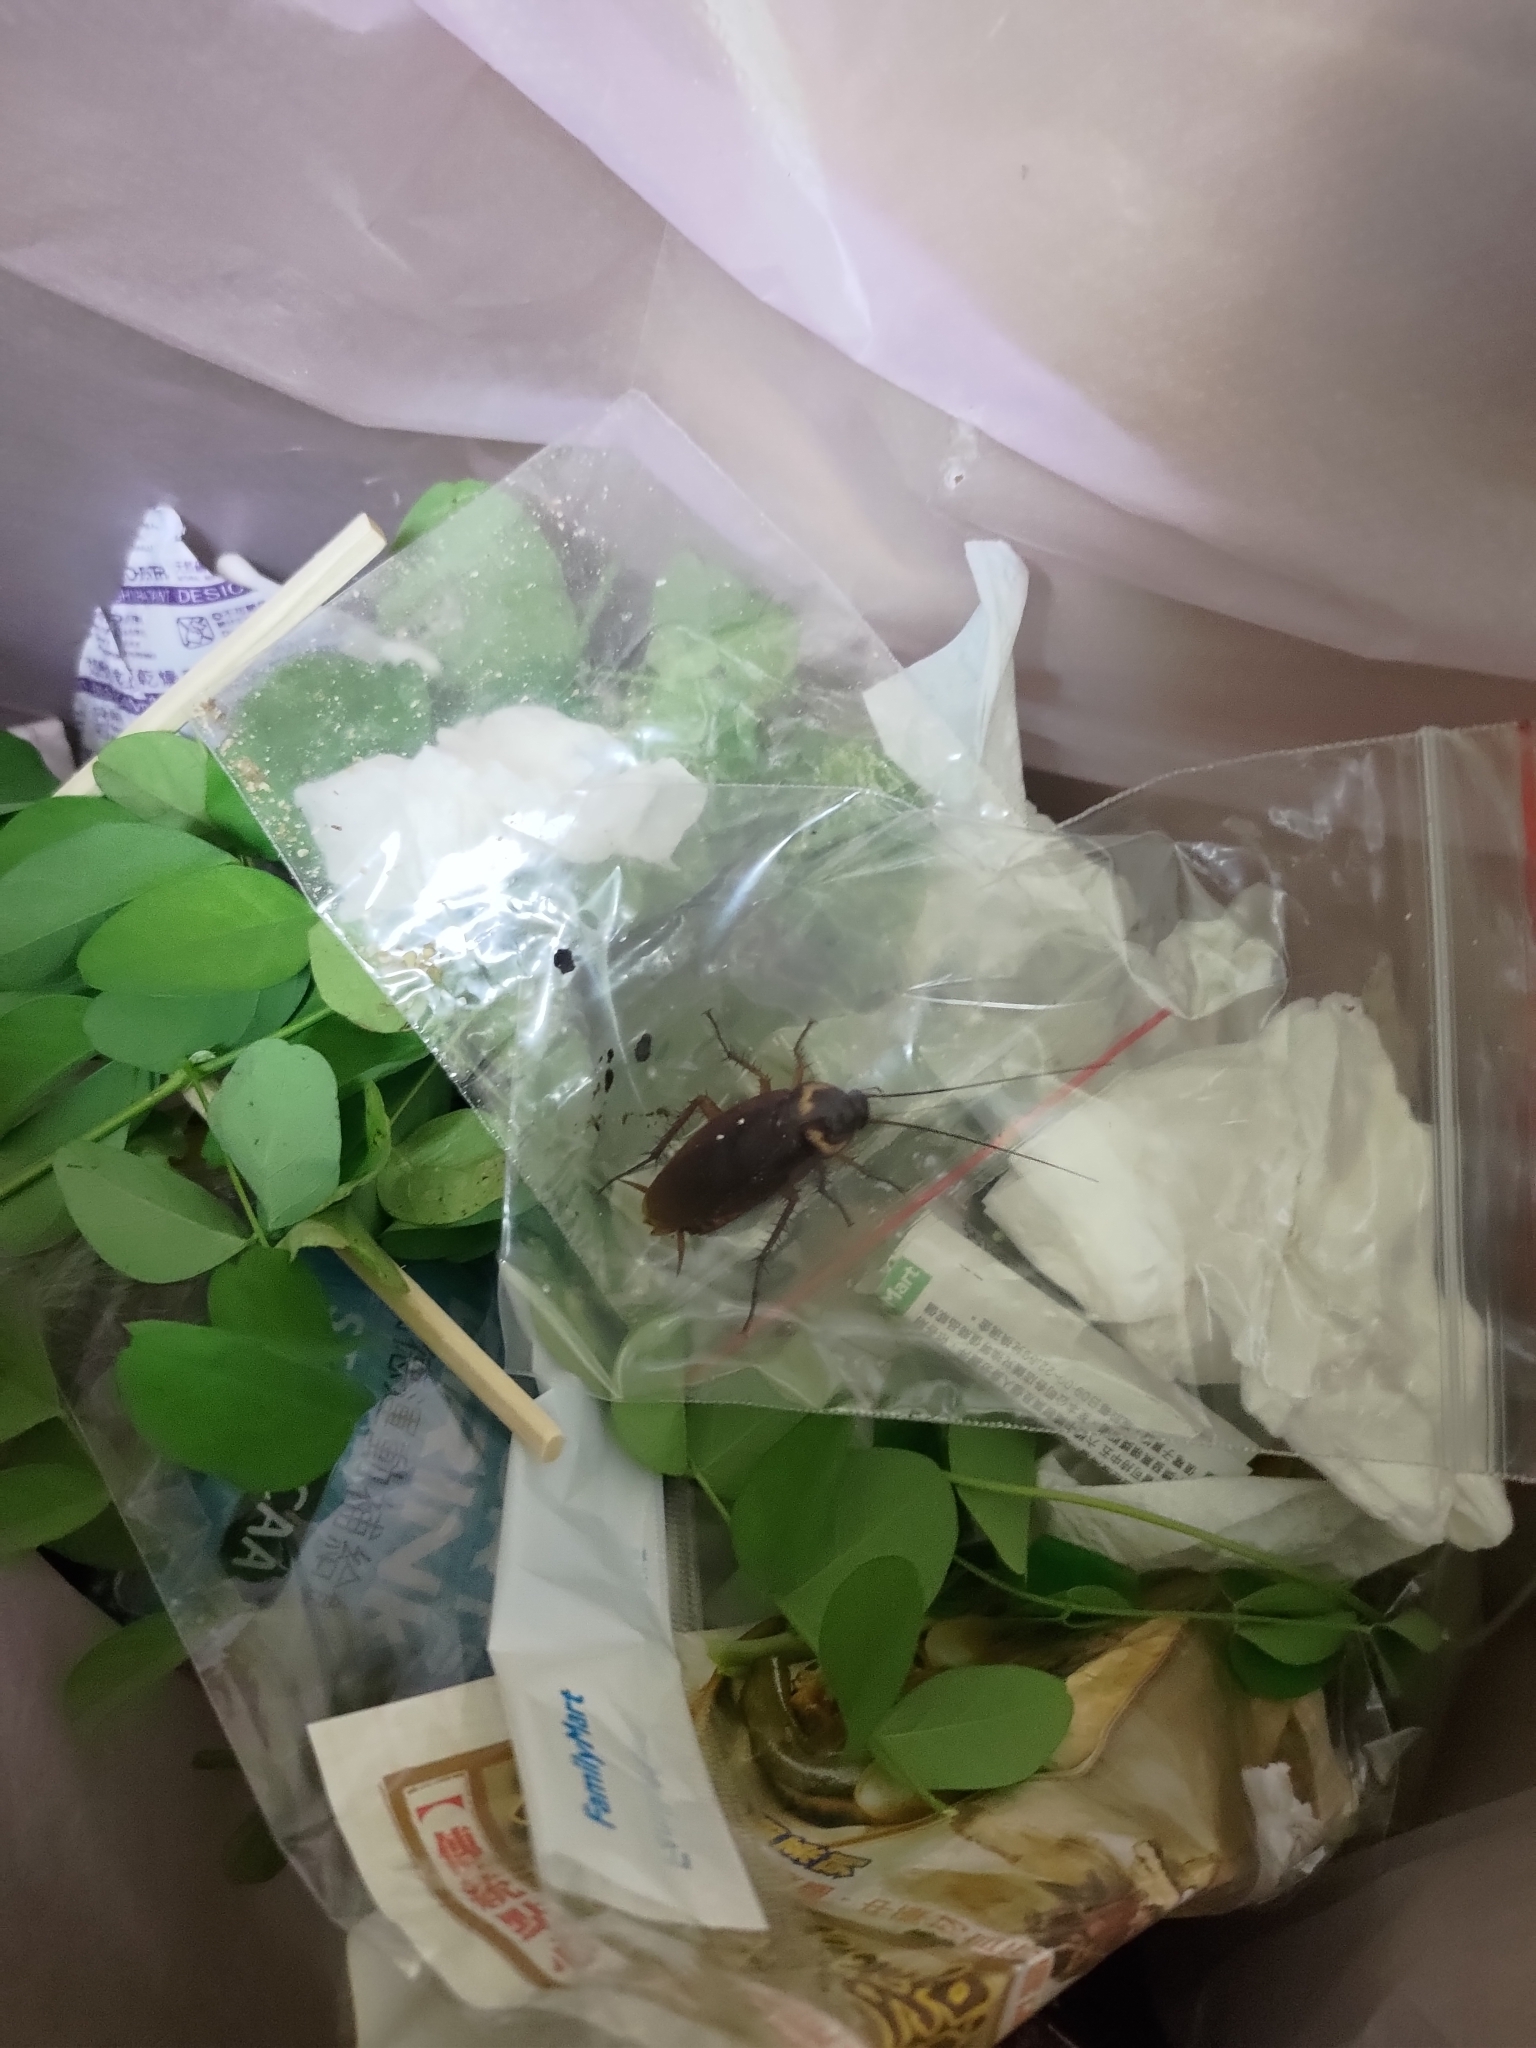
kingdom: Animalia
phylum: Arthropoda
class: Insecta
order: Blattodea
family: Blattidae
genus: Periplaneta
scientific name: Periplaneta americana
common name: American cockroach
